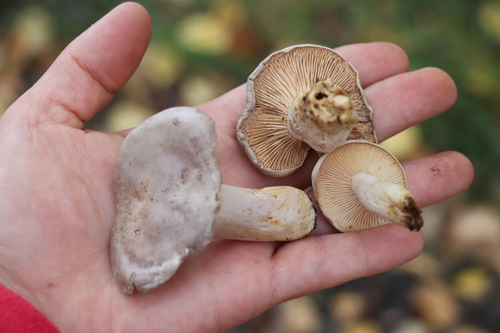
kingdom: Fungi
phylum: Basidiomycota
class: Agaricomycetes
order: Russulales
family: Russulaceae
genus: Lactarius
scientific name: Lactarius flexuosus
